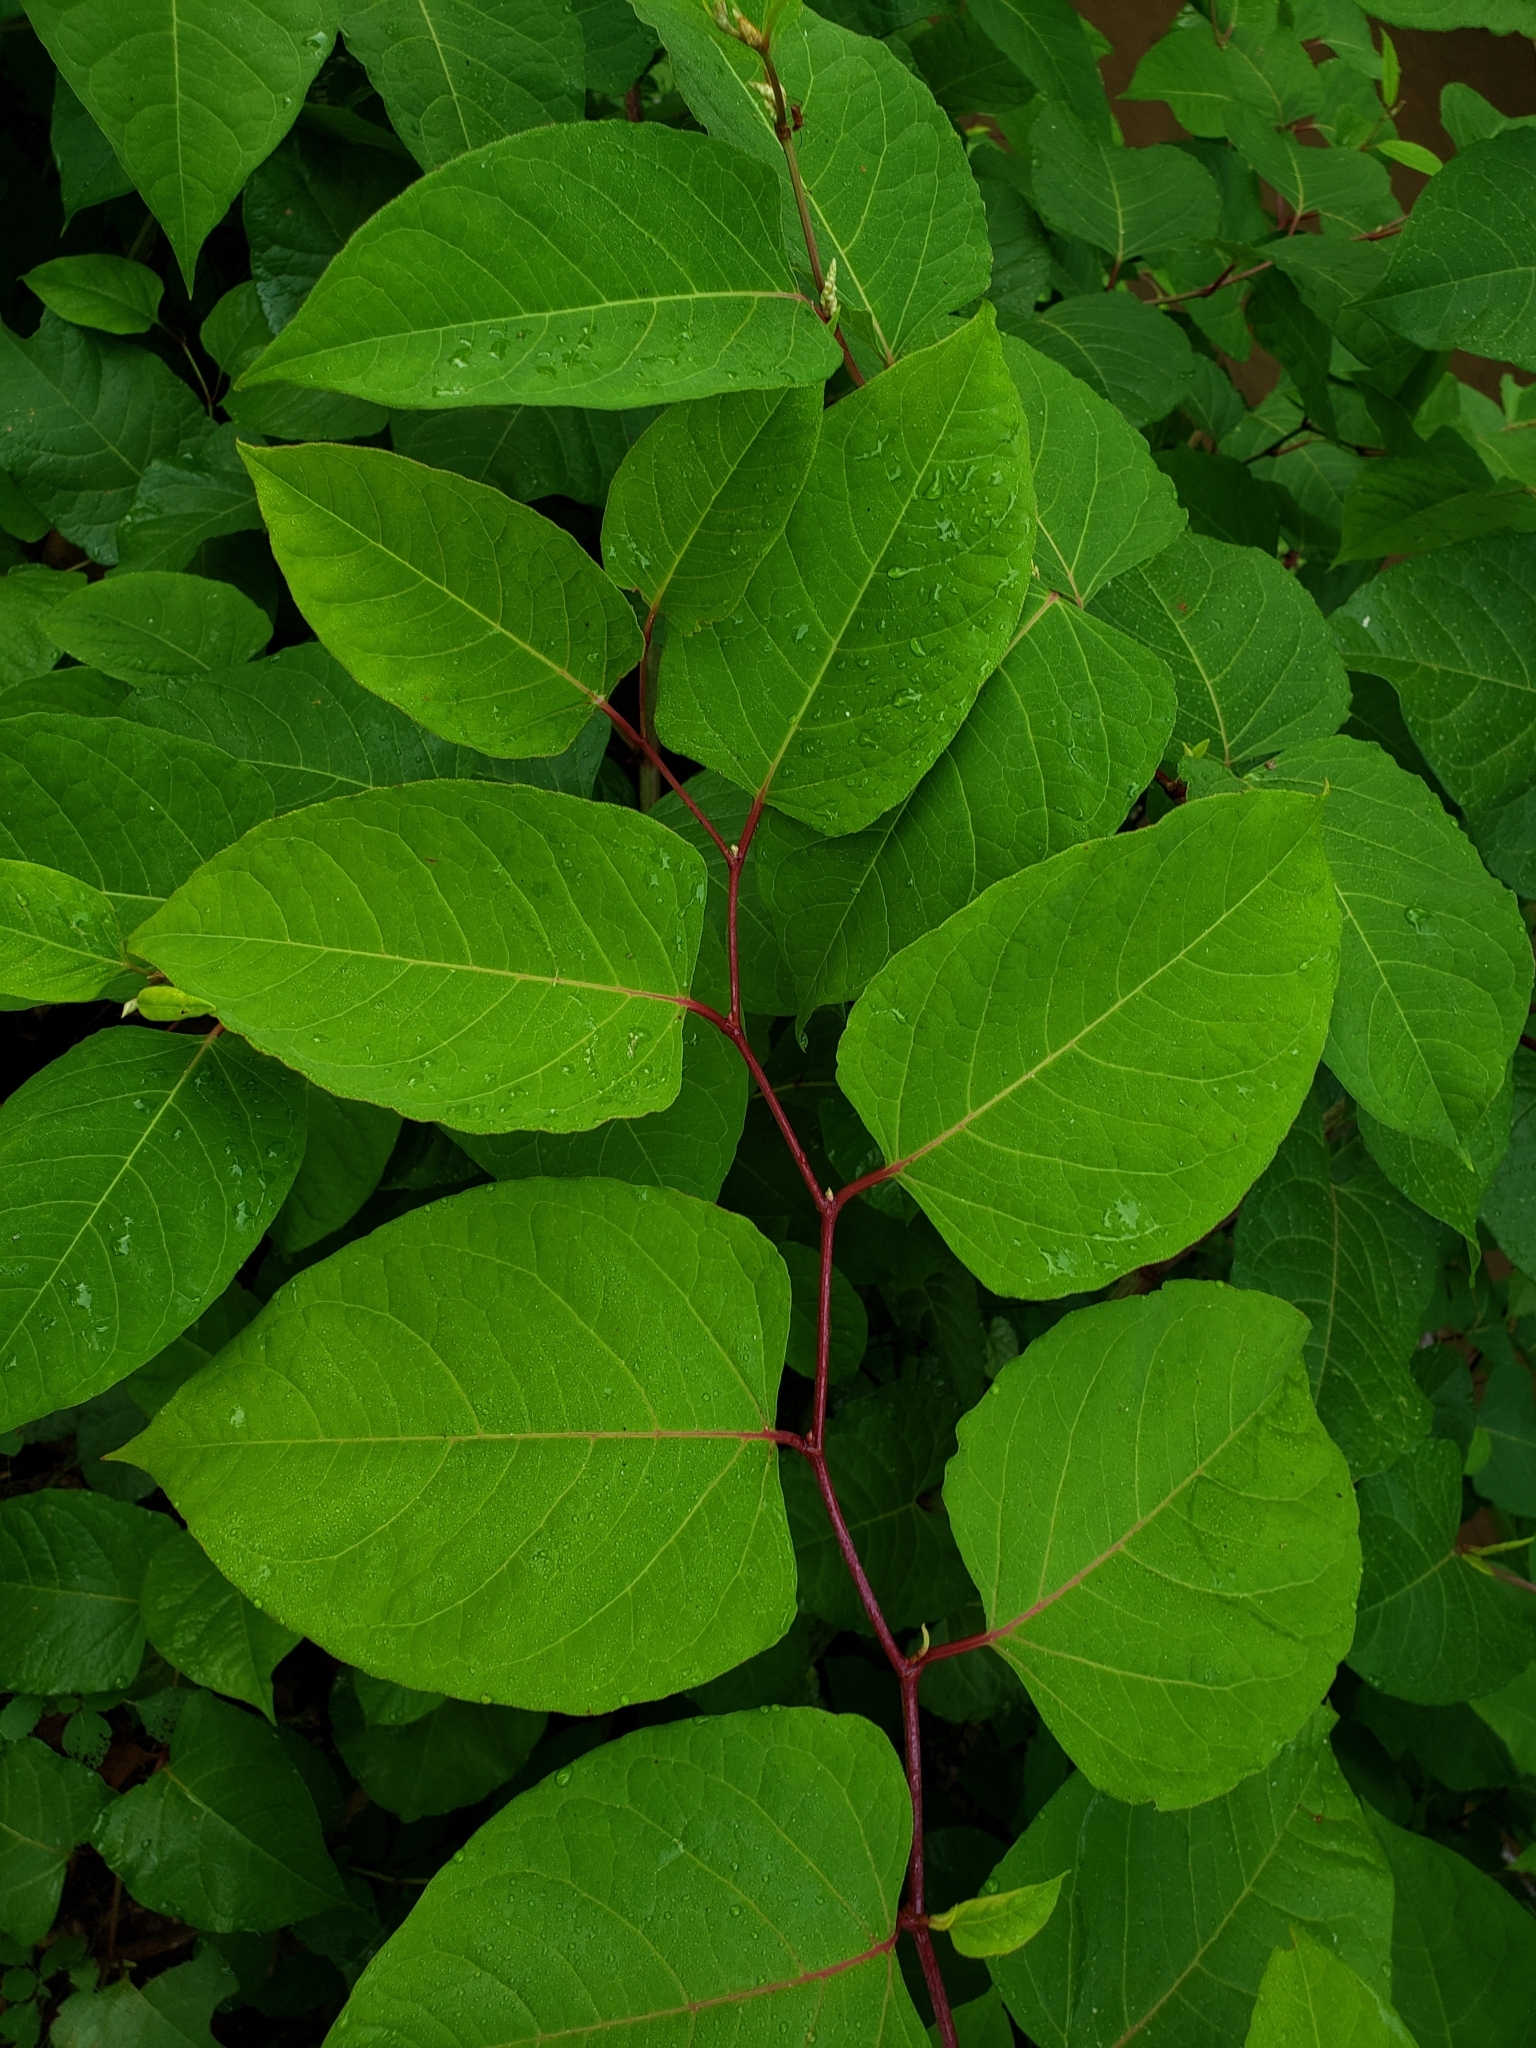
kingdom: Plantae
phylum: Tracheophyta
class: Magnoliopsida
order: Caryophyllales
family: Polygonaceae
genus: Reynoutria
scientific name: Reynoutria japonica
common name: Japanese knotweed
